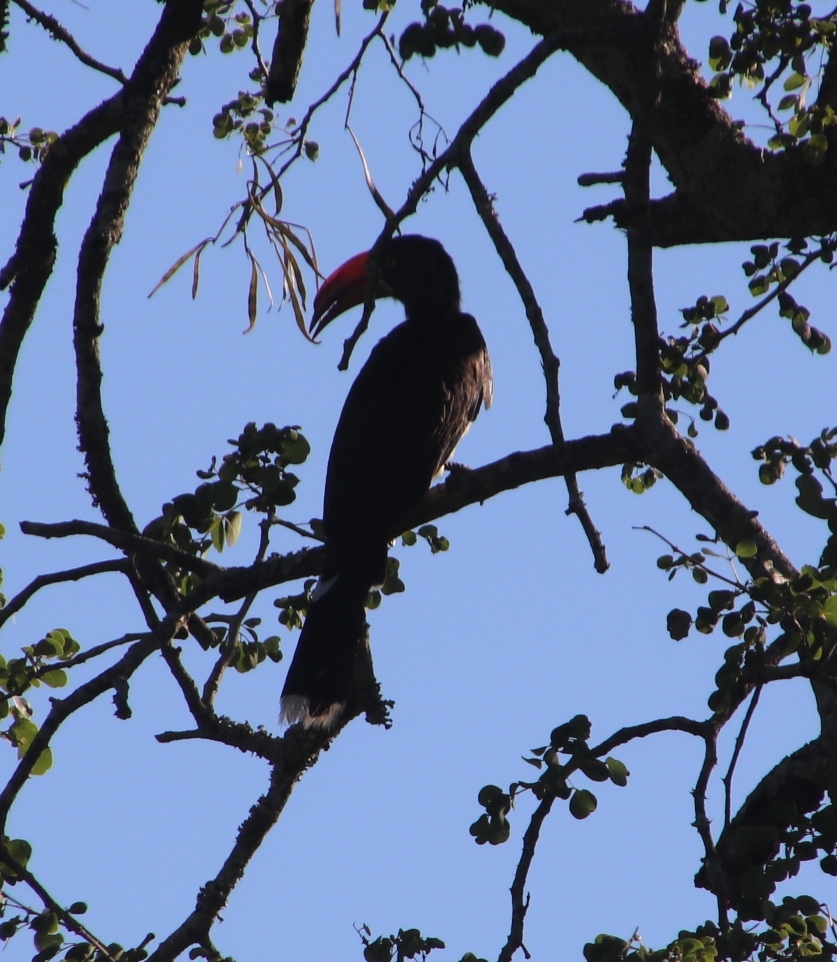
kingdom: Animalia
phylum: Chordata
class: Aves
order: Bucerotiformes
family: Bucerotidae
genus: Lophoceros
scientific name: Lophoceros alboterminatus
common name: Crowned hornbill
